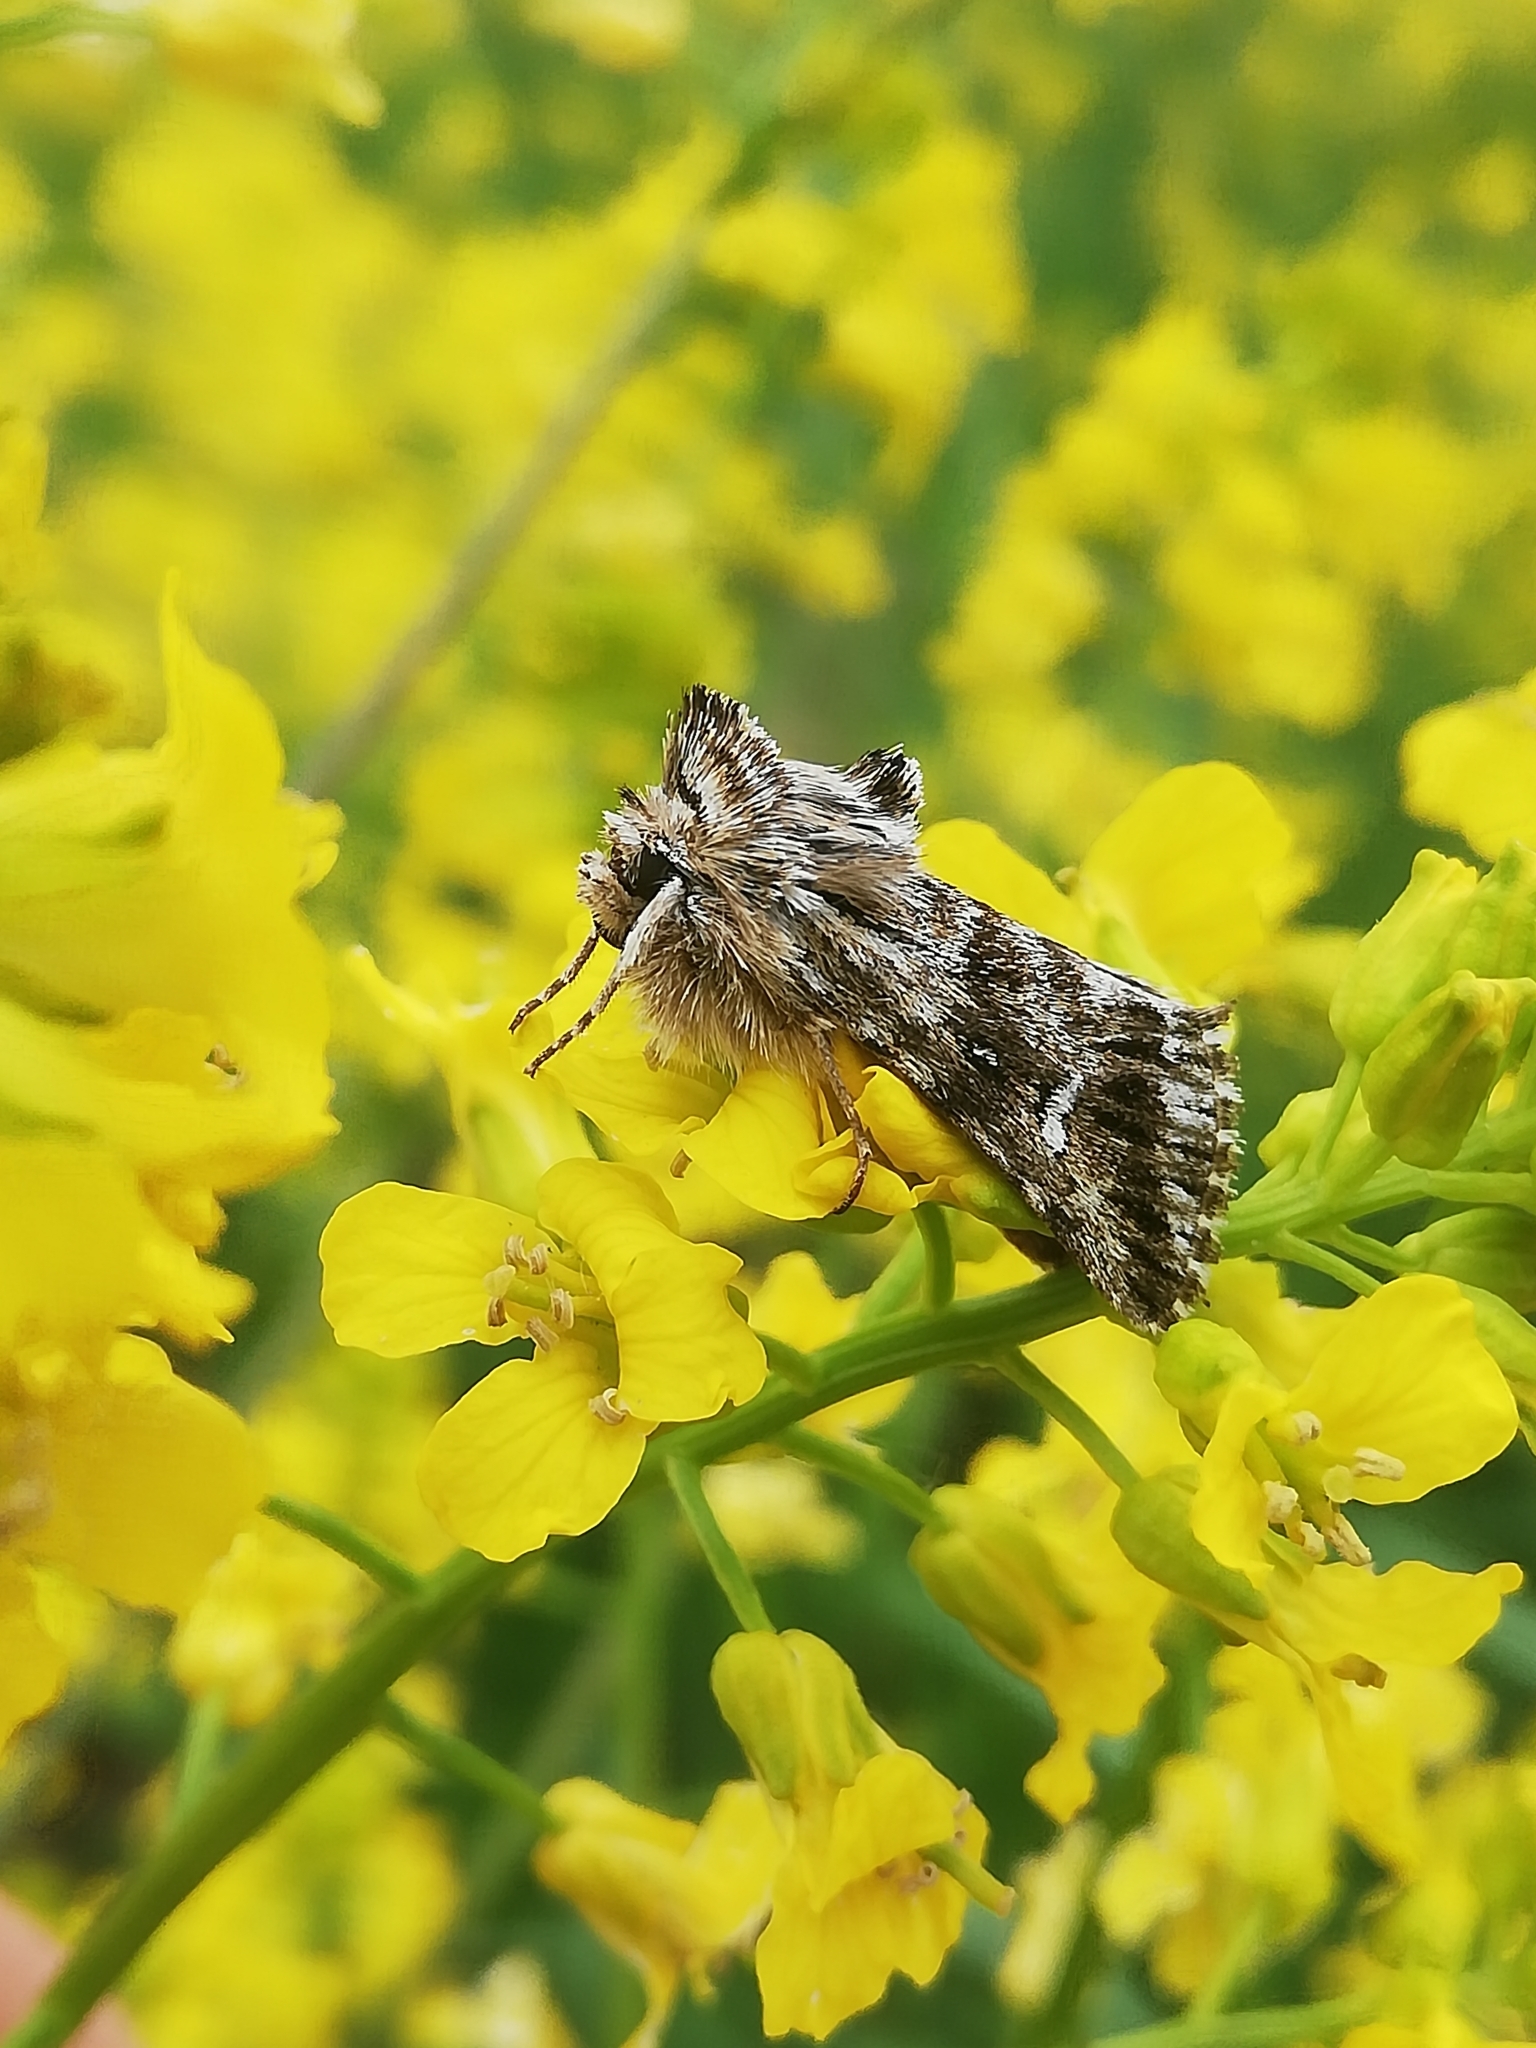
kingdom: Animalia
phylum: Arthropoda
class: Insecta
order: Lepidoptera
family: Noctuidae
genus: Calophasia
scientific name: Calophasia lunula
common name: Toadflax brocade
